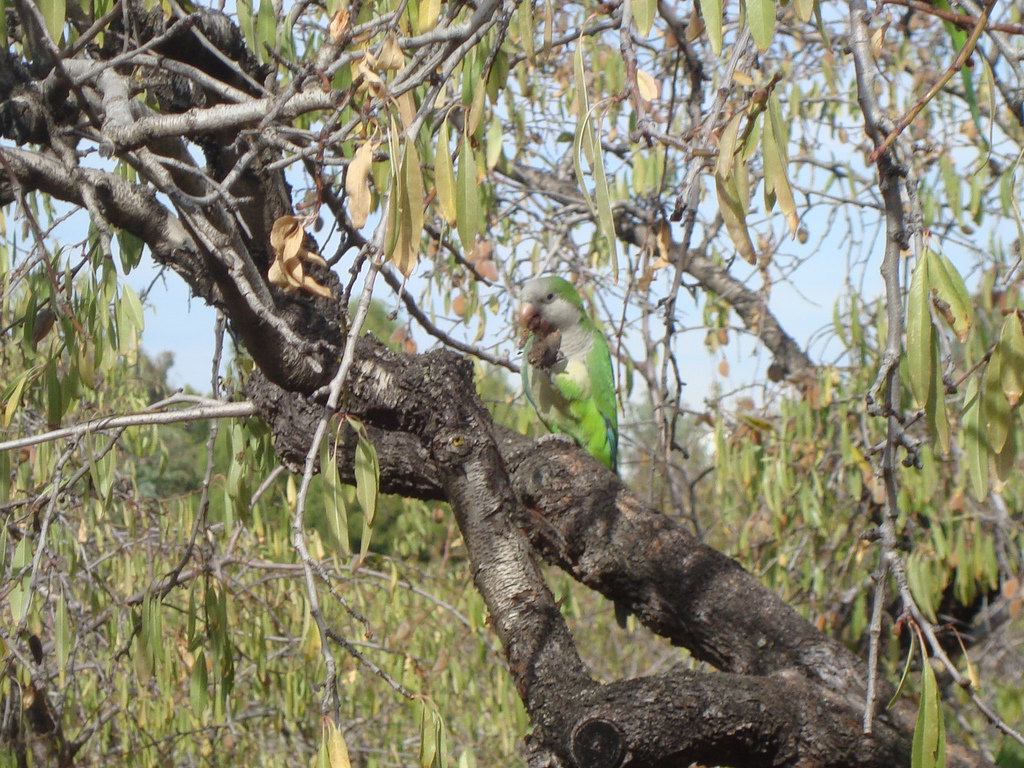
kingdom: Animalia
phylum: Chordata
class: Aves
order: Psittaciformes
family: Psittacidae
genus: Myiopsitta
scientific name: Myiopsitta monachus
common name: Monk parakeet
